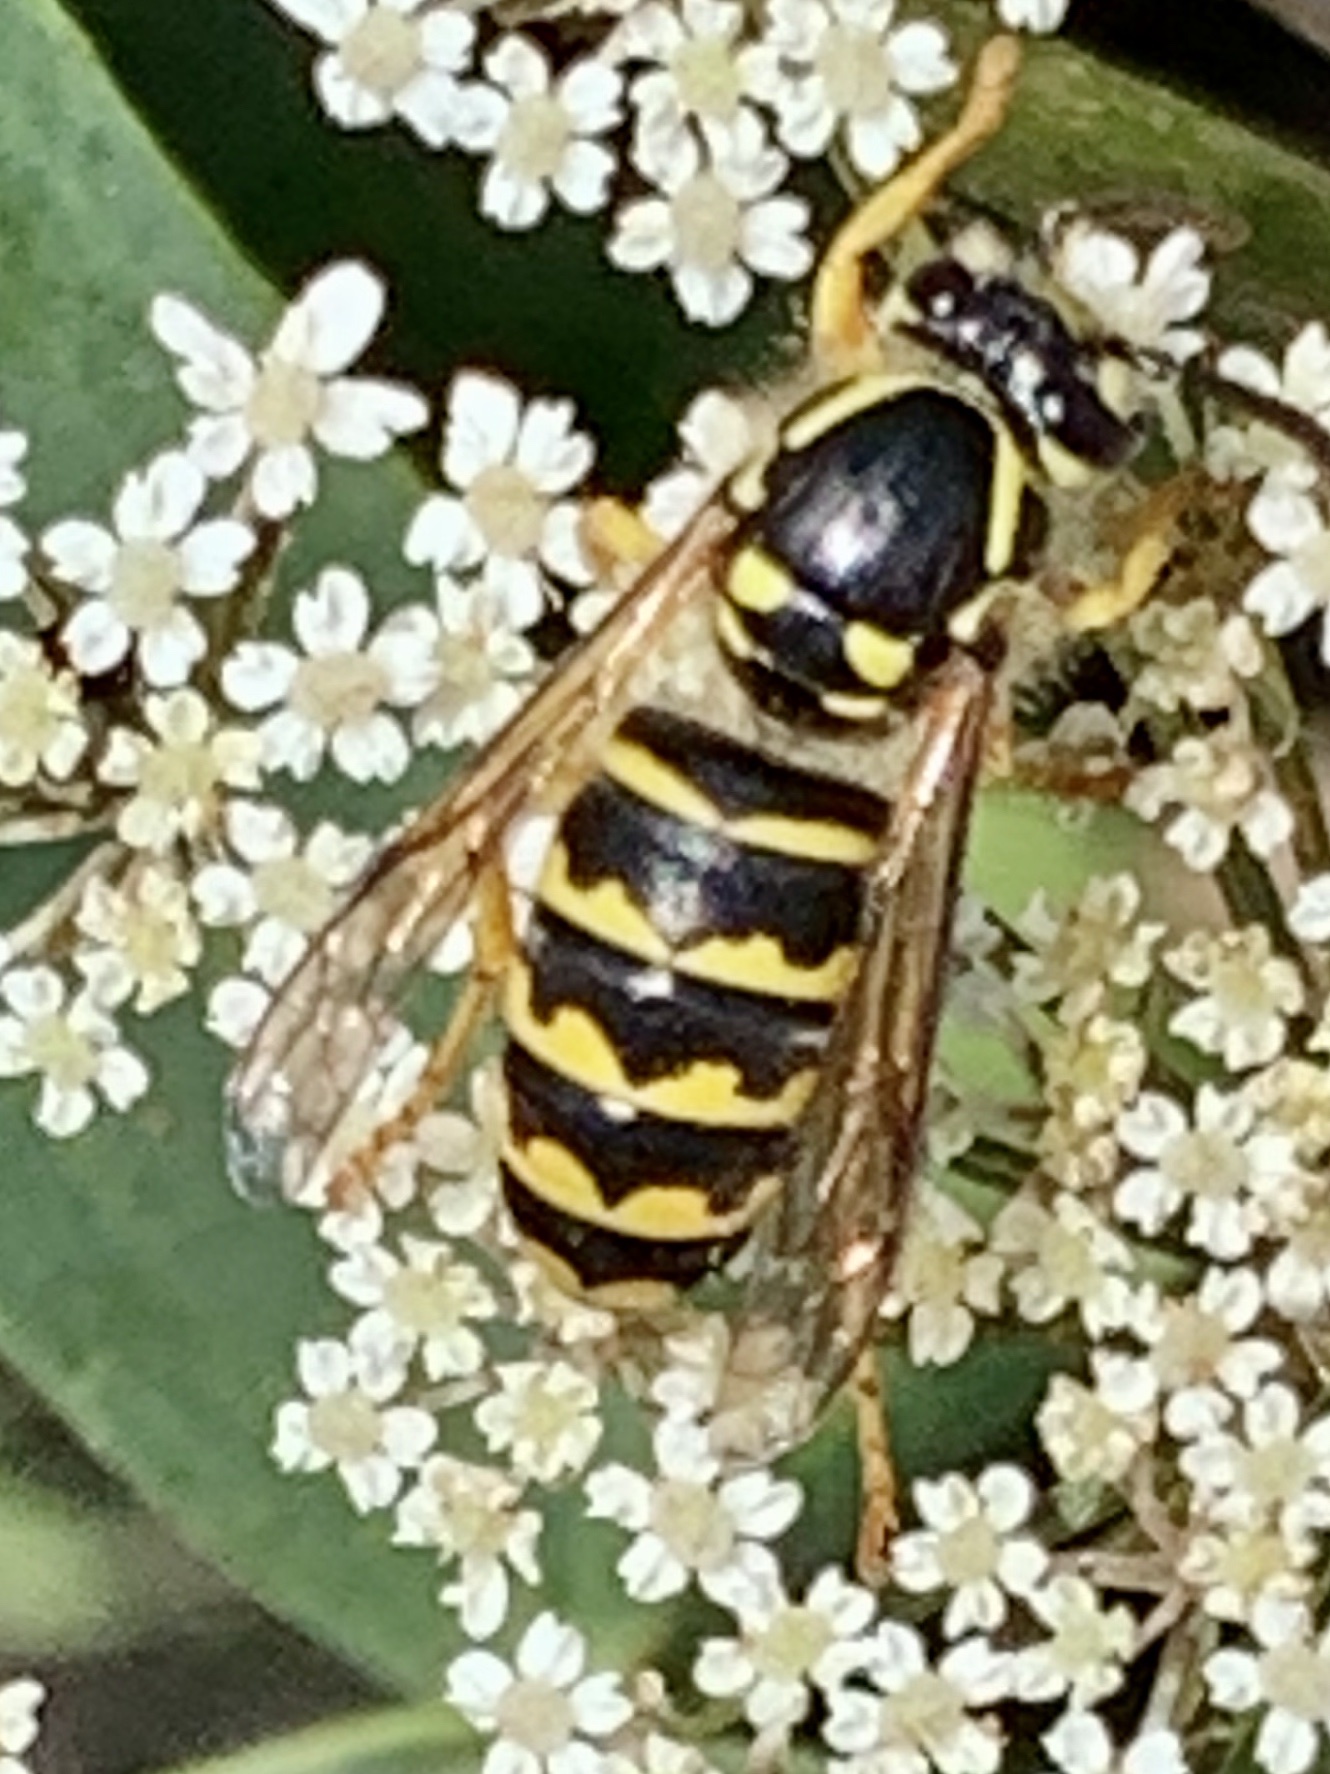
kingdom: Animalia
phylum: Arthropoda
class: Insecta
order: Hymenoptera
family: Vespidae
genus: Dolichovespula
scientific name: Dolichovespula arenaria
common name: Aerial yellowjacket
